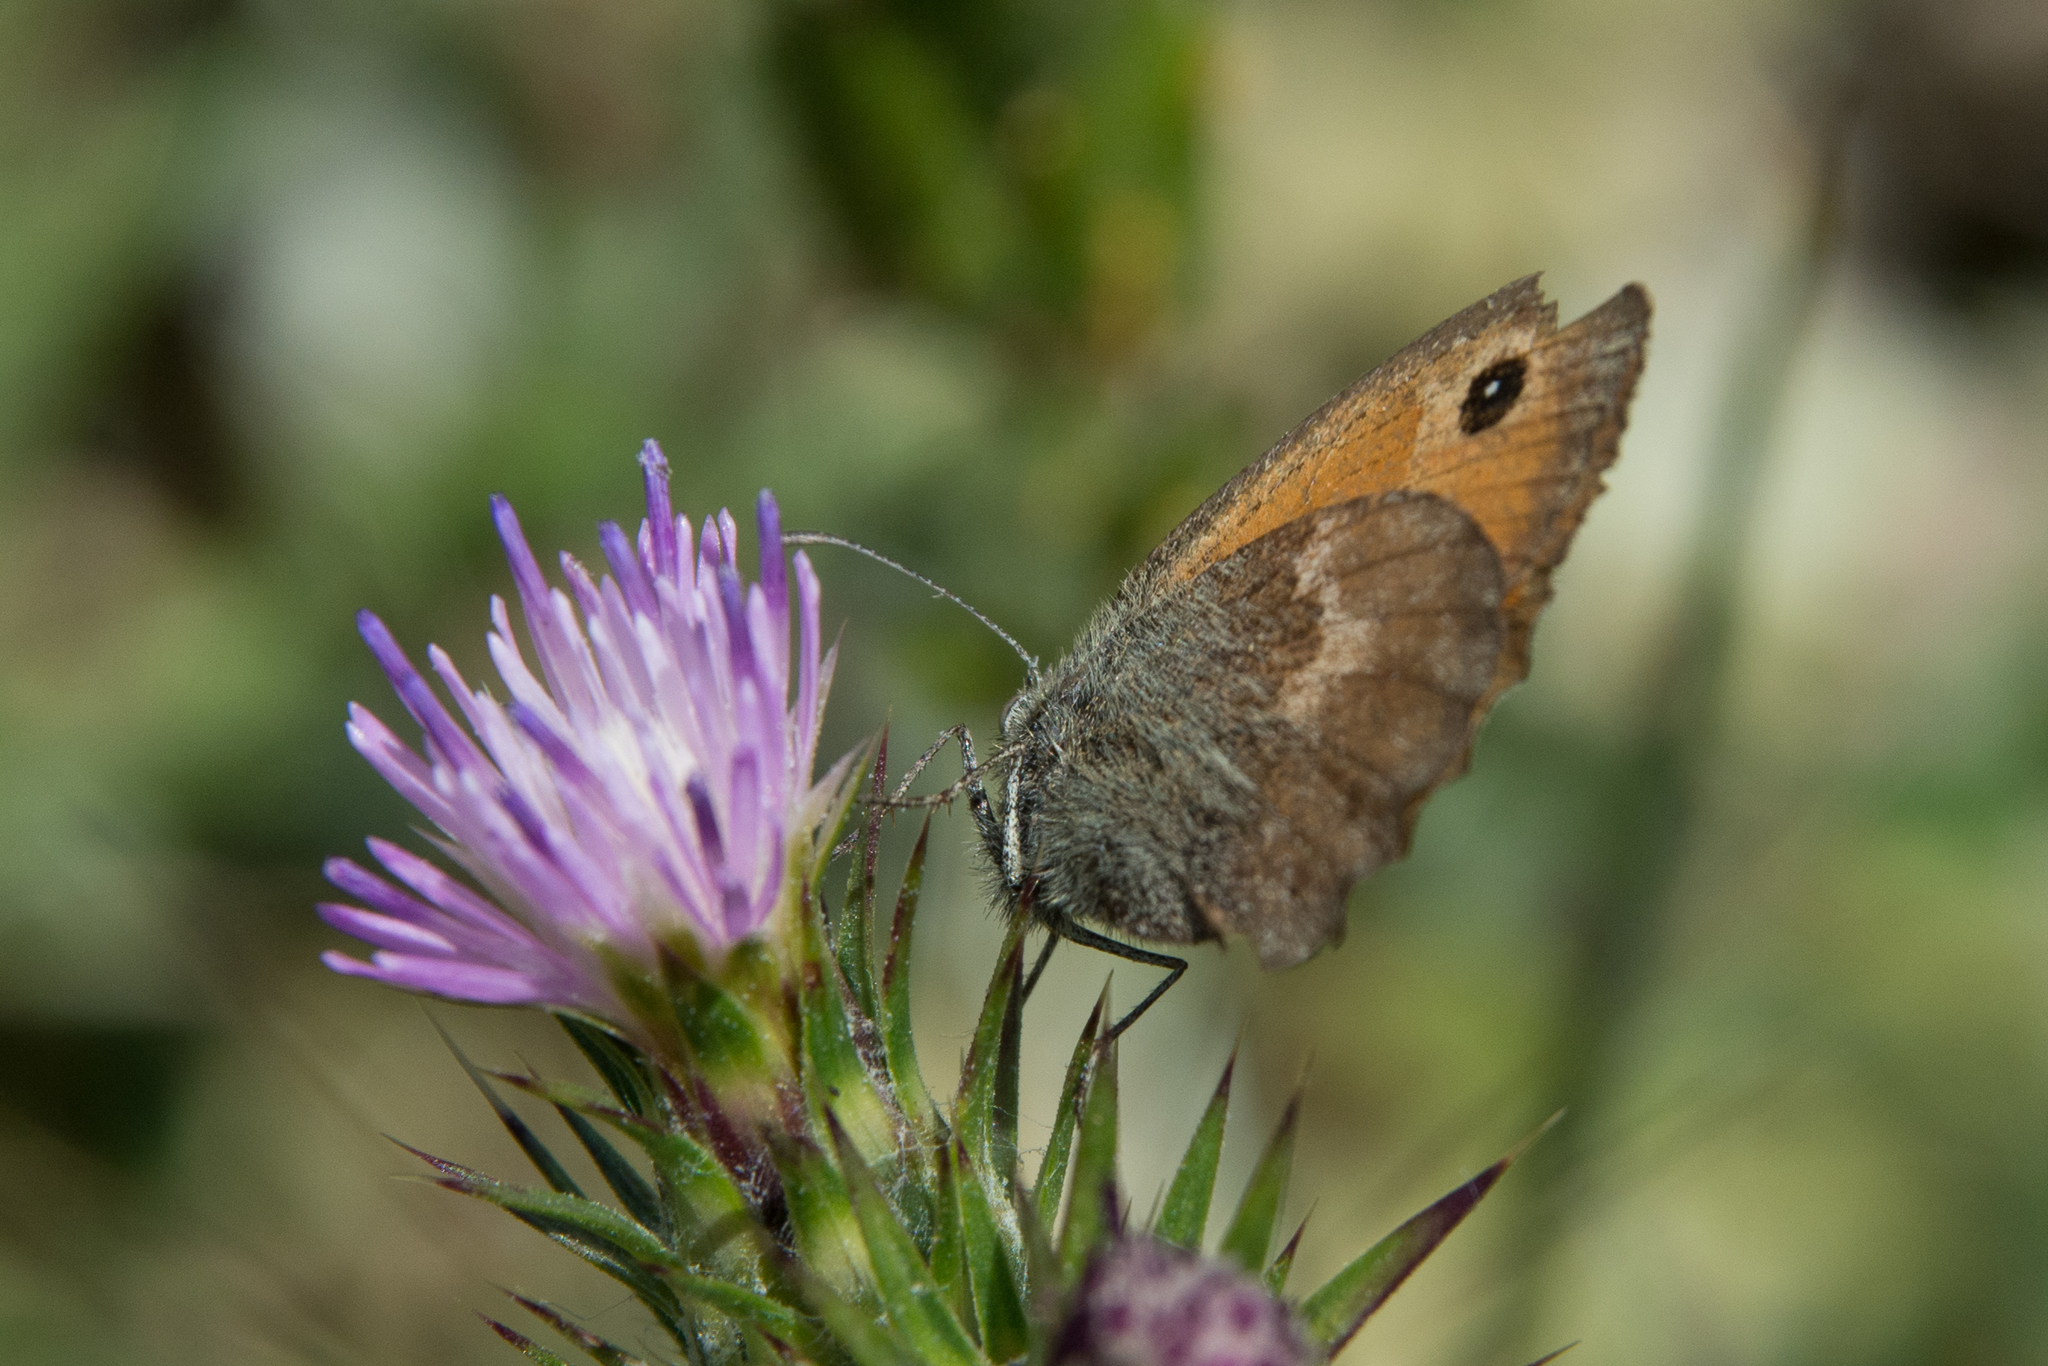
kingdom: Animalia
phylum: Arthropoda
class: Insecta
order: Lepidoptera
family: Nymphalidae
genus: Coenonympha
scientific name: Coenonympha pamphilus
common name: Small heath
